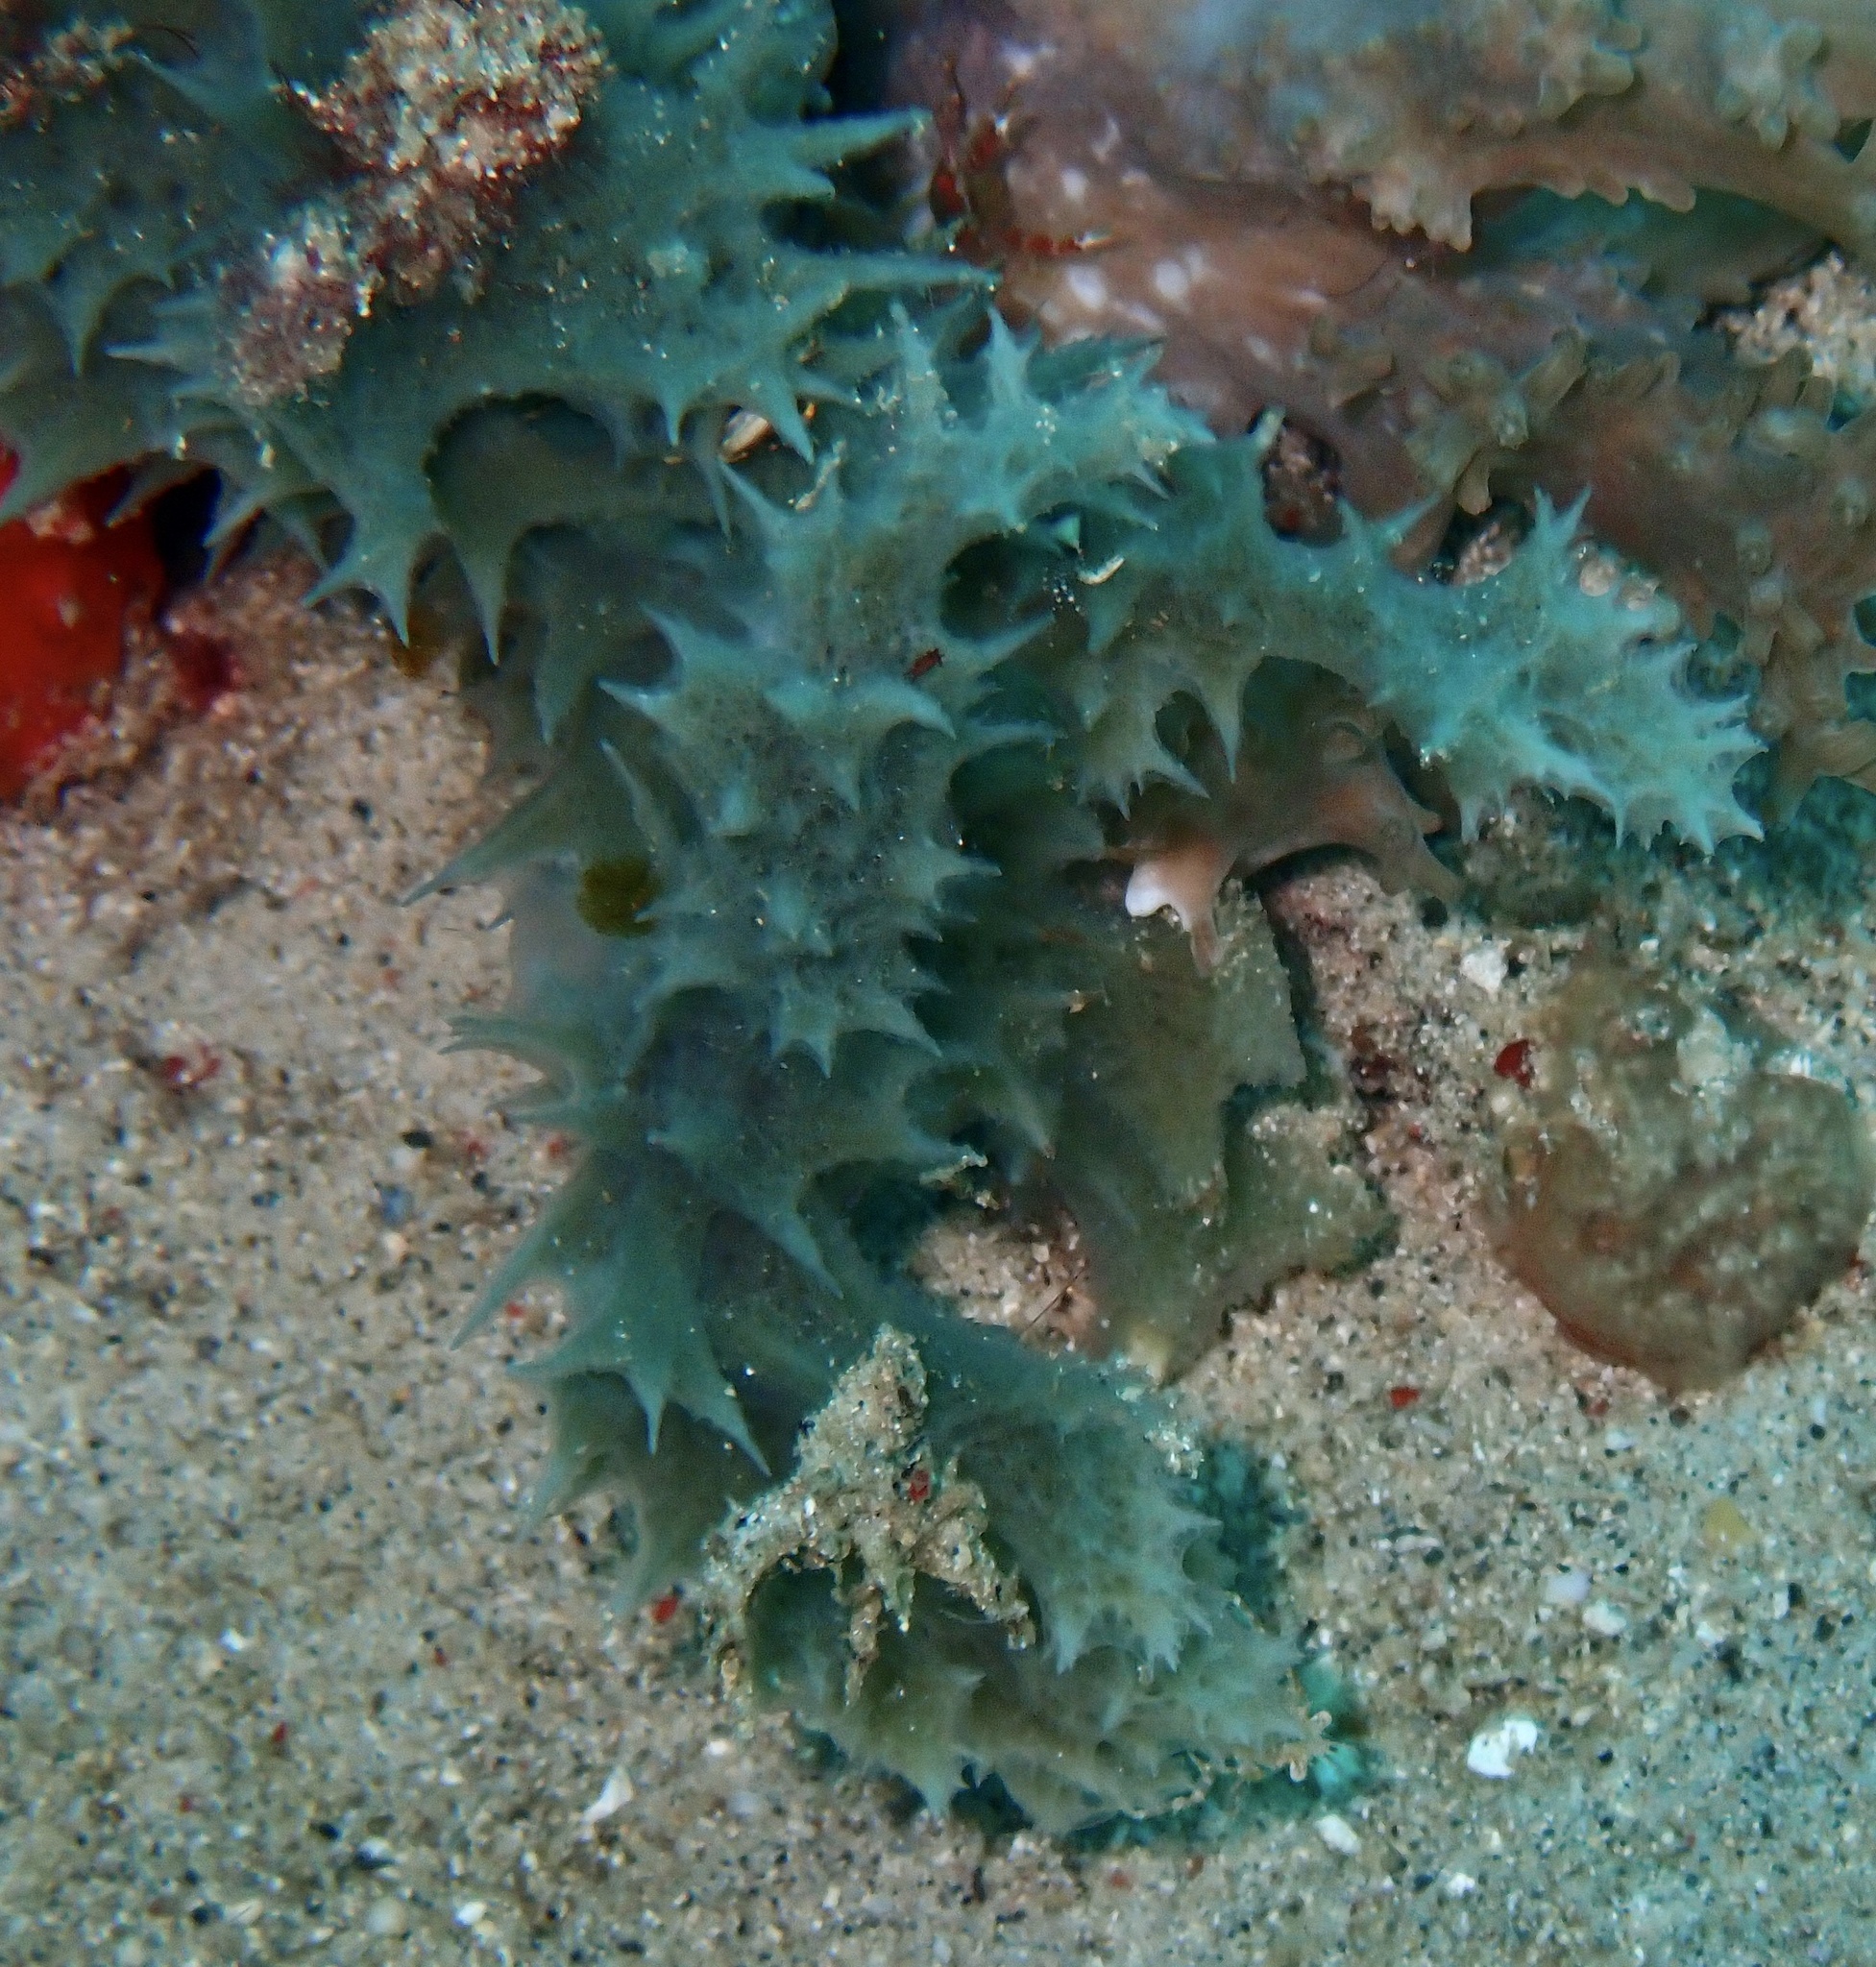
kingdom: Animalia
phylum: Porifera
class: Demospongiae
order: Haplosclerida
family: Niphatidae
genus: Gelliodes
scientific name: Gelliodes fibulata
